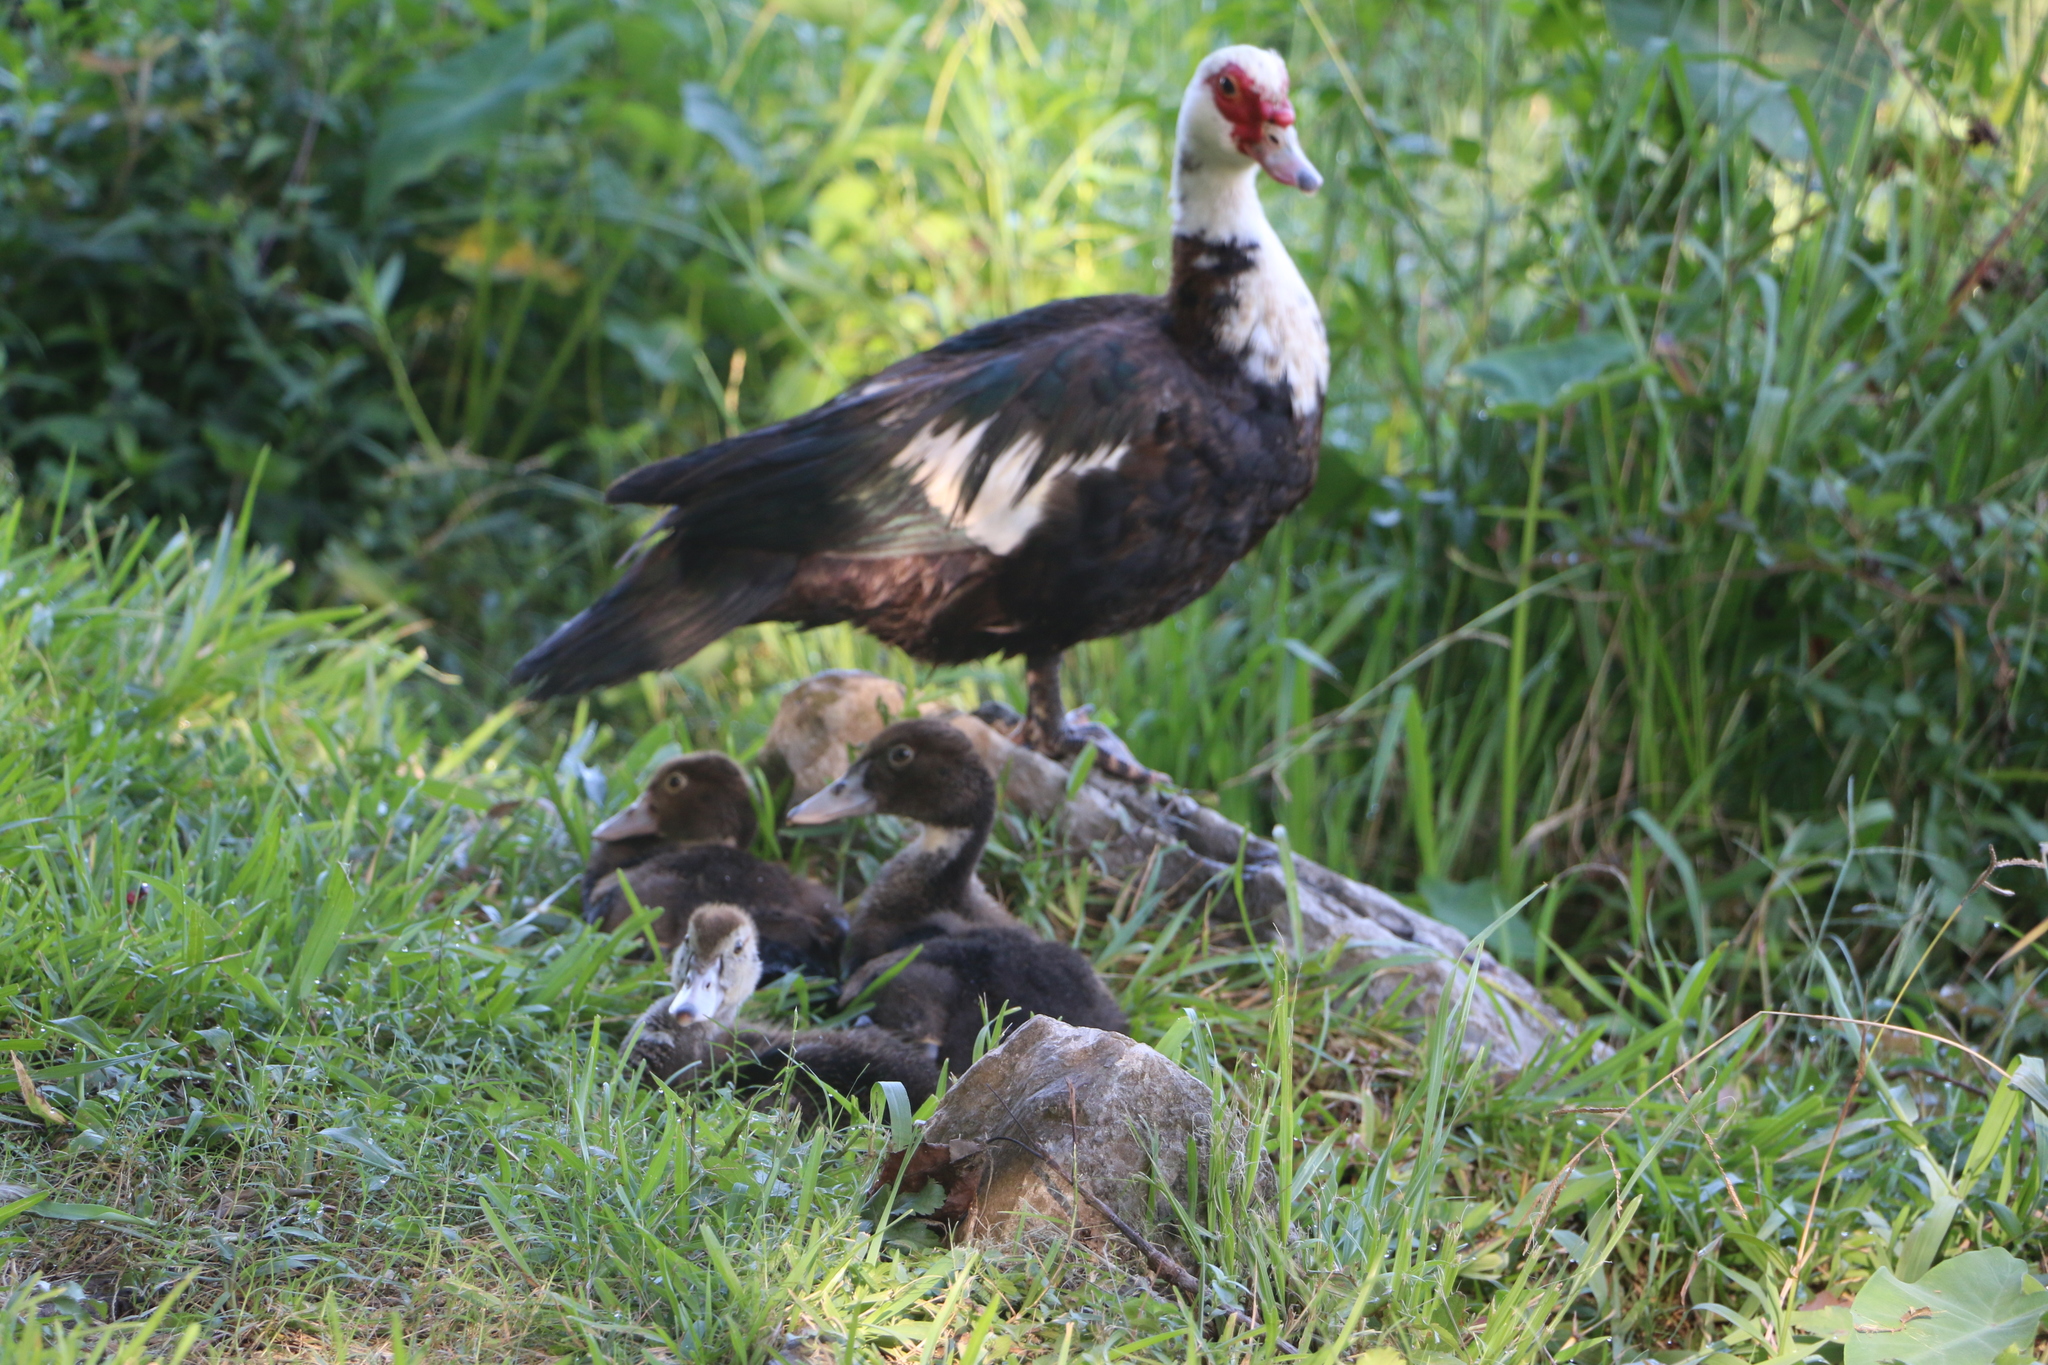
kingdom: Animalia
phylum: Chordata
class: Aves
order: Anseriformes
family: Anatidae
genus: Cairina
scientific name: Cairina moschata
